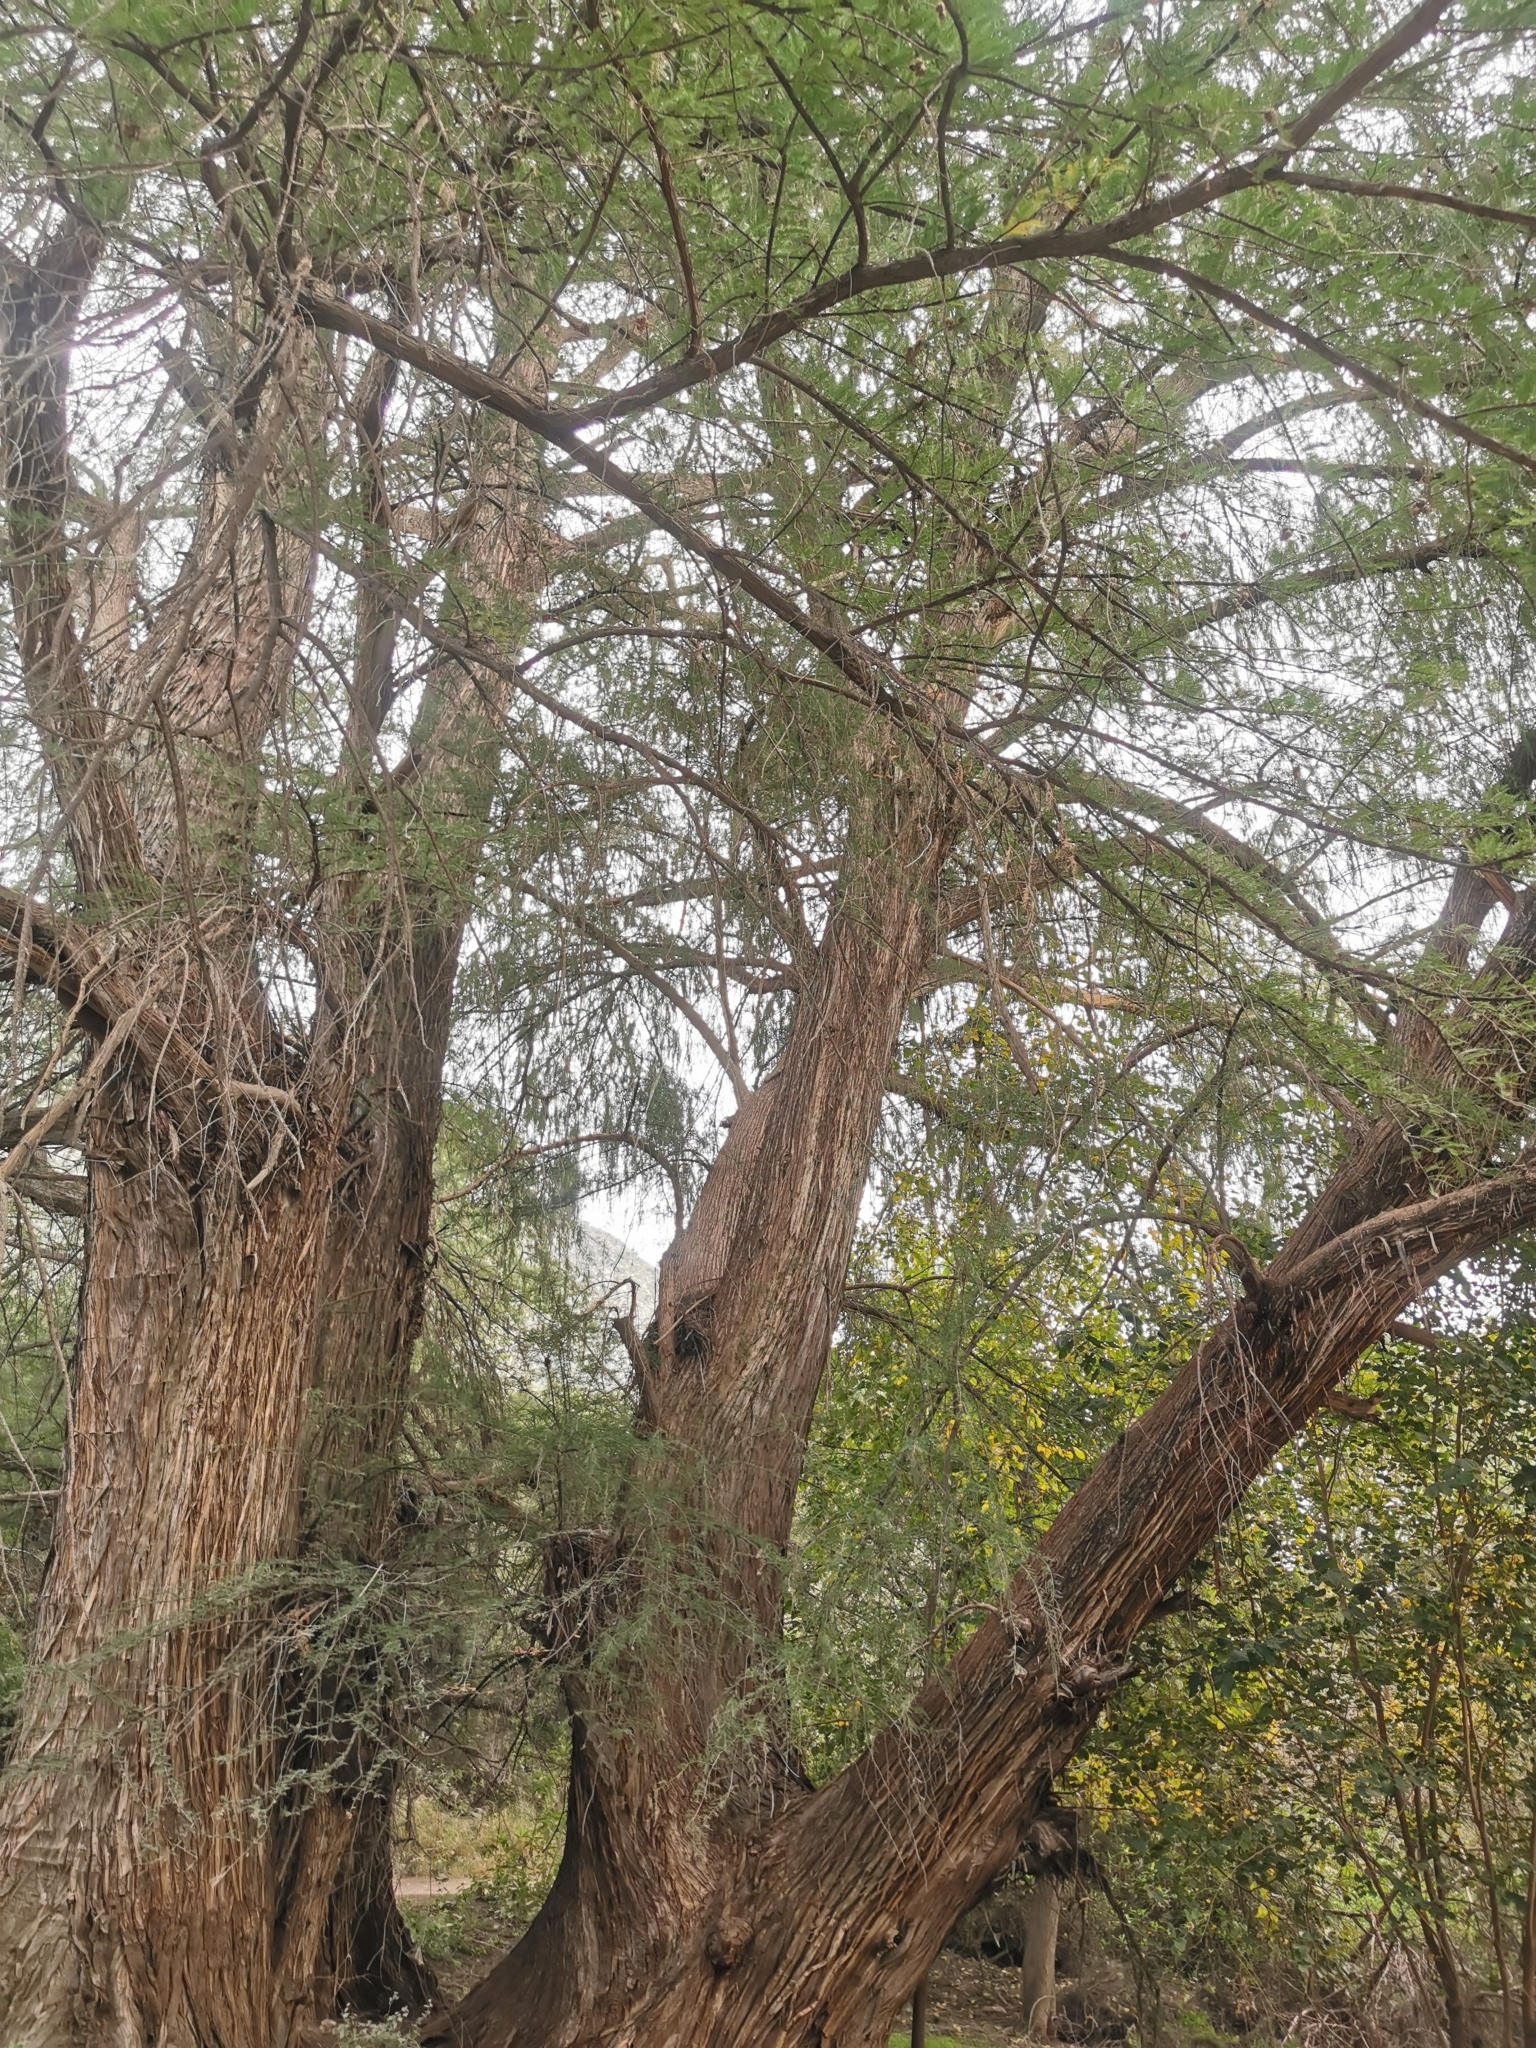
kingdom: Plantae
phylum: Tracheophyta
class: Pinopsida
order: Pinales
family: Cupressaceae
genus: Taxodium
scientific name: Taxodium mucronatum
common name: Montezume bald cypress
